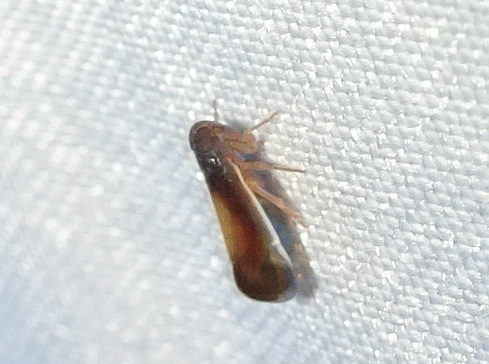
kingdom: Animalia
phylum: Arthropoda
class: Insecta
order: Hemiptera
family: Cixiidae
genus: Haplaxius
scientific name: Haplaxius slossonae
